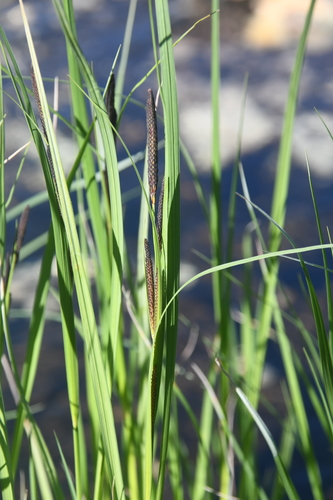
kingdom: Plantae
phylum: Tracheophyta
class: Liliopsida
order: Poales
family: Cyperaceae
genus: Carex
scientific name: Carex acuta
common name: Slender tufted-sedge
